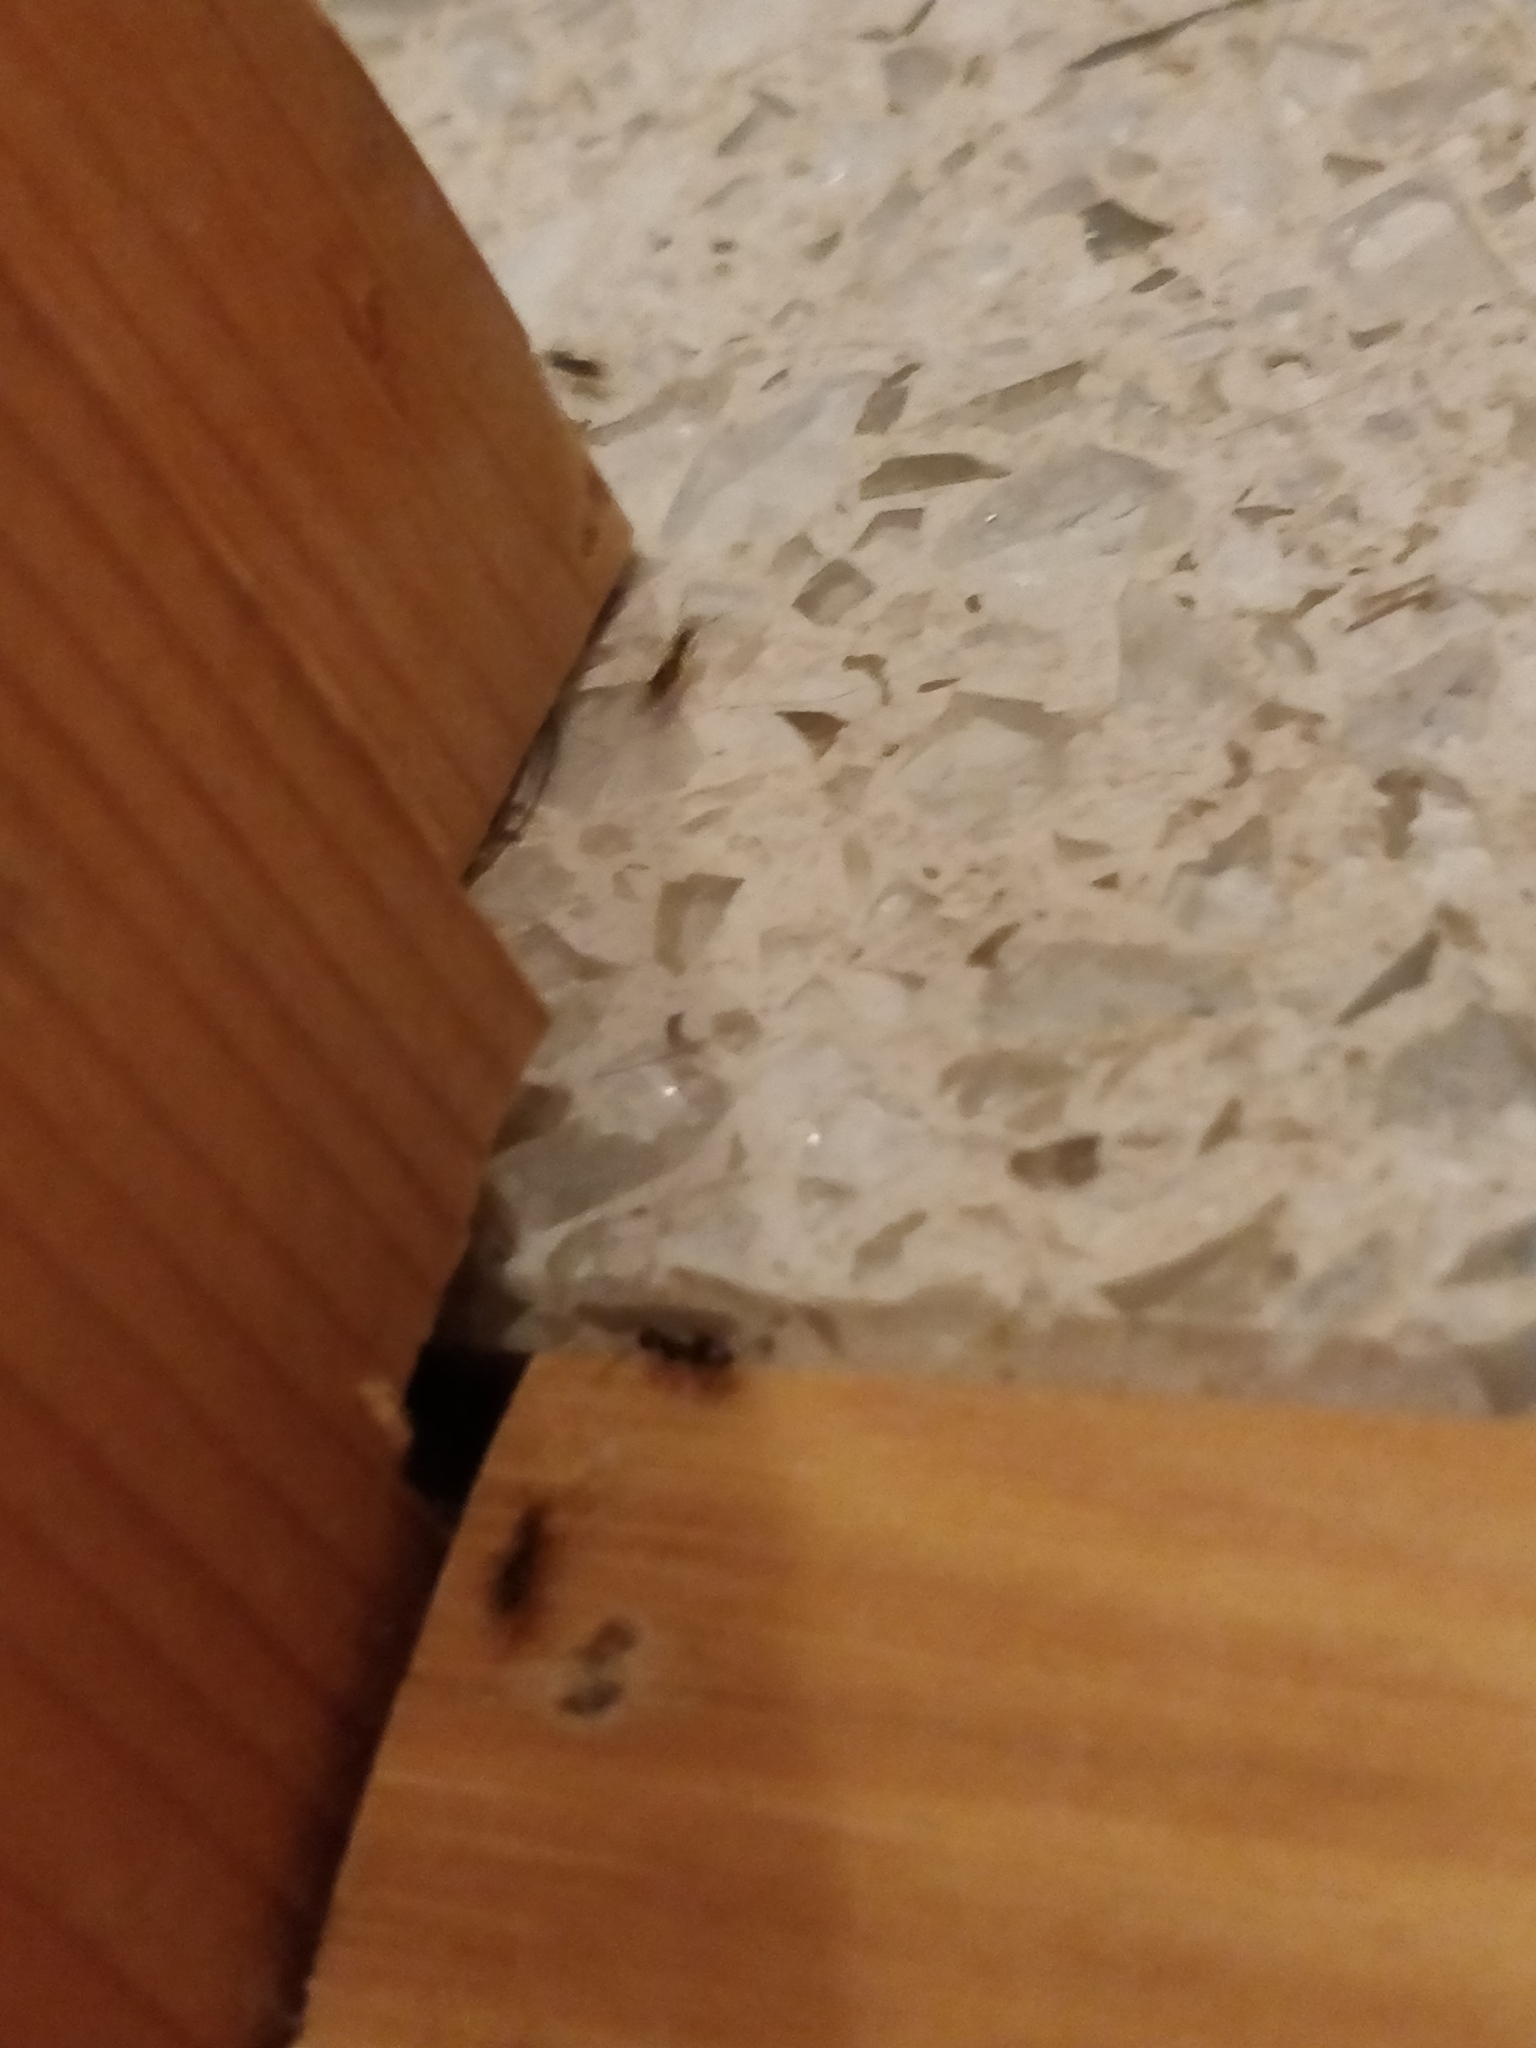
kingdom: Animalia
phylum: Arthropoda
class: Insecta
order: Hymenoptera
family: Formicidae
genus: Tapinoma
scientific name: Tapinoma sessile
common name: Odorous house ant
